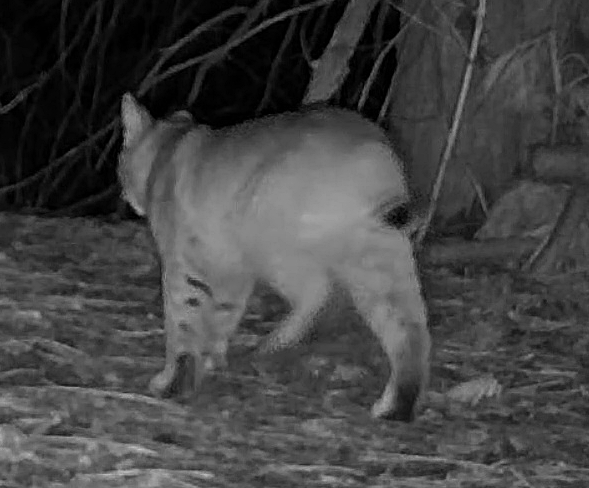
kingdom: Animalia
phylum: Chordata
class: Mammalia
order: Carnivora
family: Felidae
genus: Lynx
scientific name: Lynx rufus
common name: Bobcat
